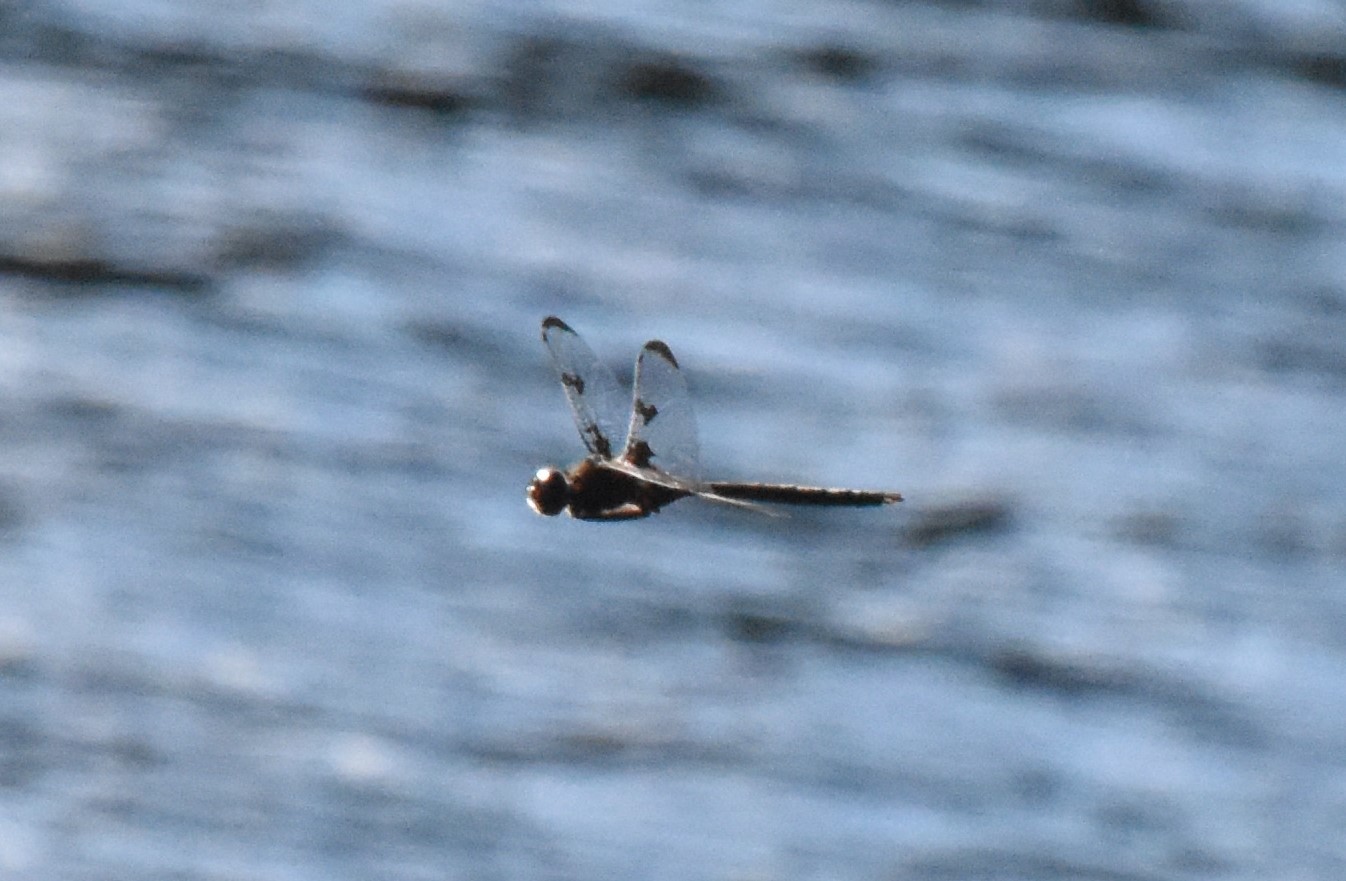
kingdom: Animalia
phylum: Arthropoda
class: Insecta
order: Odonata
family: Corduliidae
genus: Epitheca
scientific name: Epitheca princeps
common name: Prince baskettail
